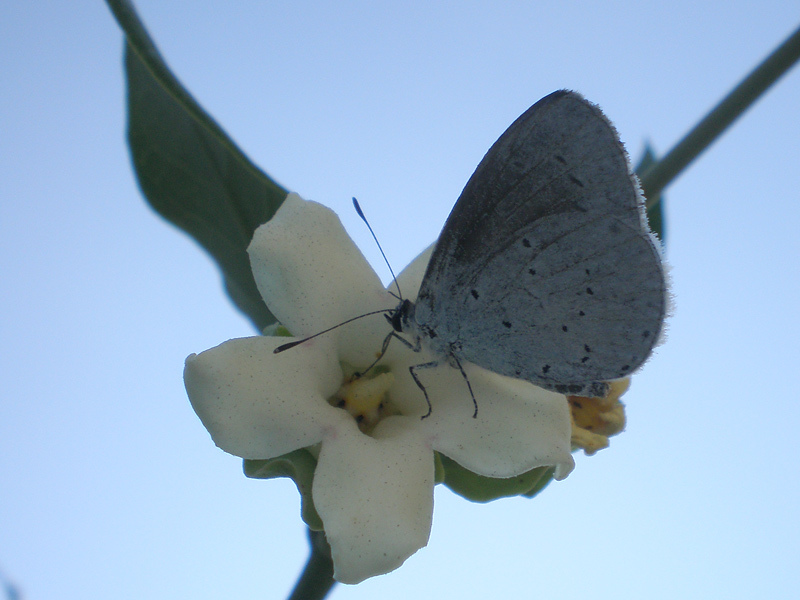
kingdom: Animalia
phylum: Arthropoda
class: Insecta
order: Lepidoptera
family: Lycaenidae
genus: Celastrina
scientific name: Celastrina argiolus
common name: Holly blue
